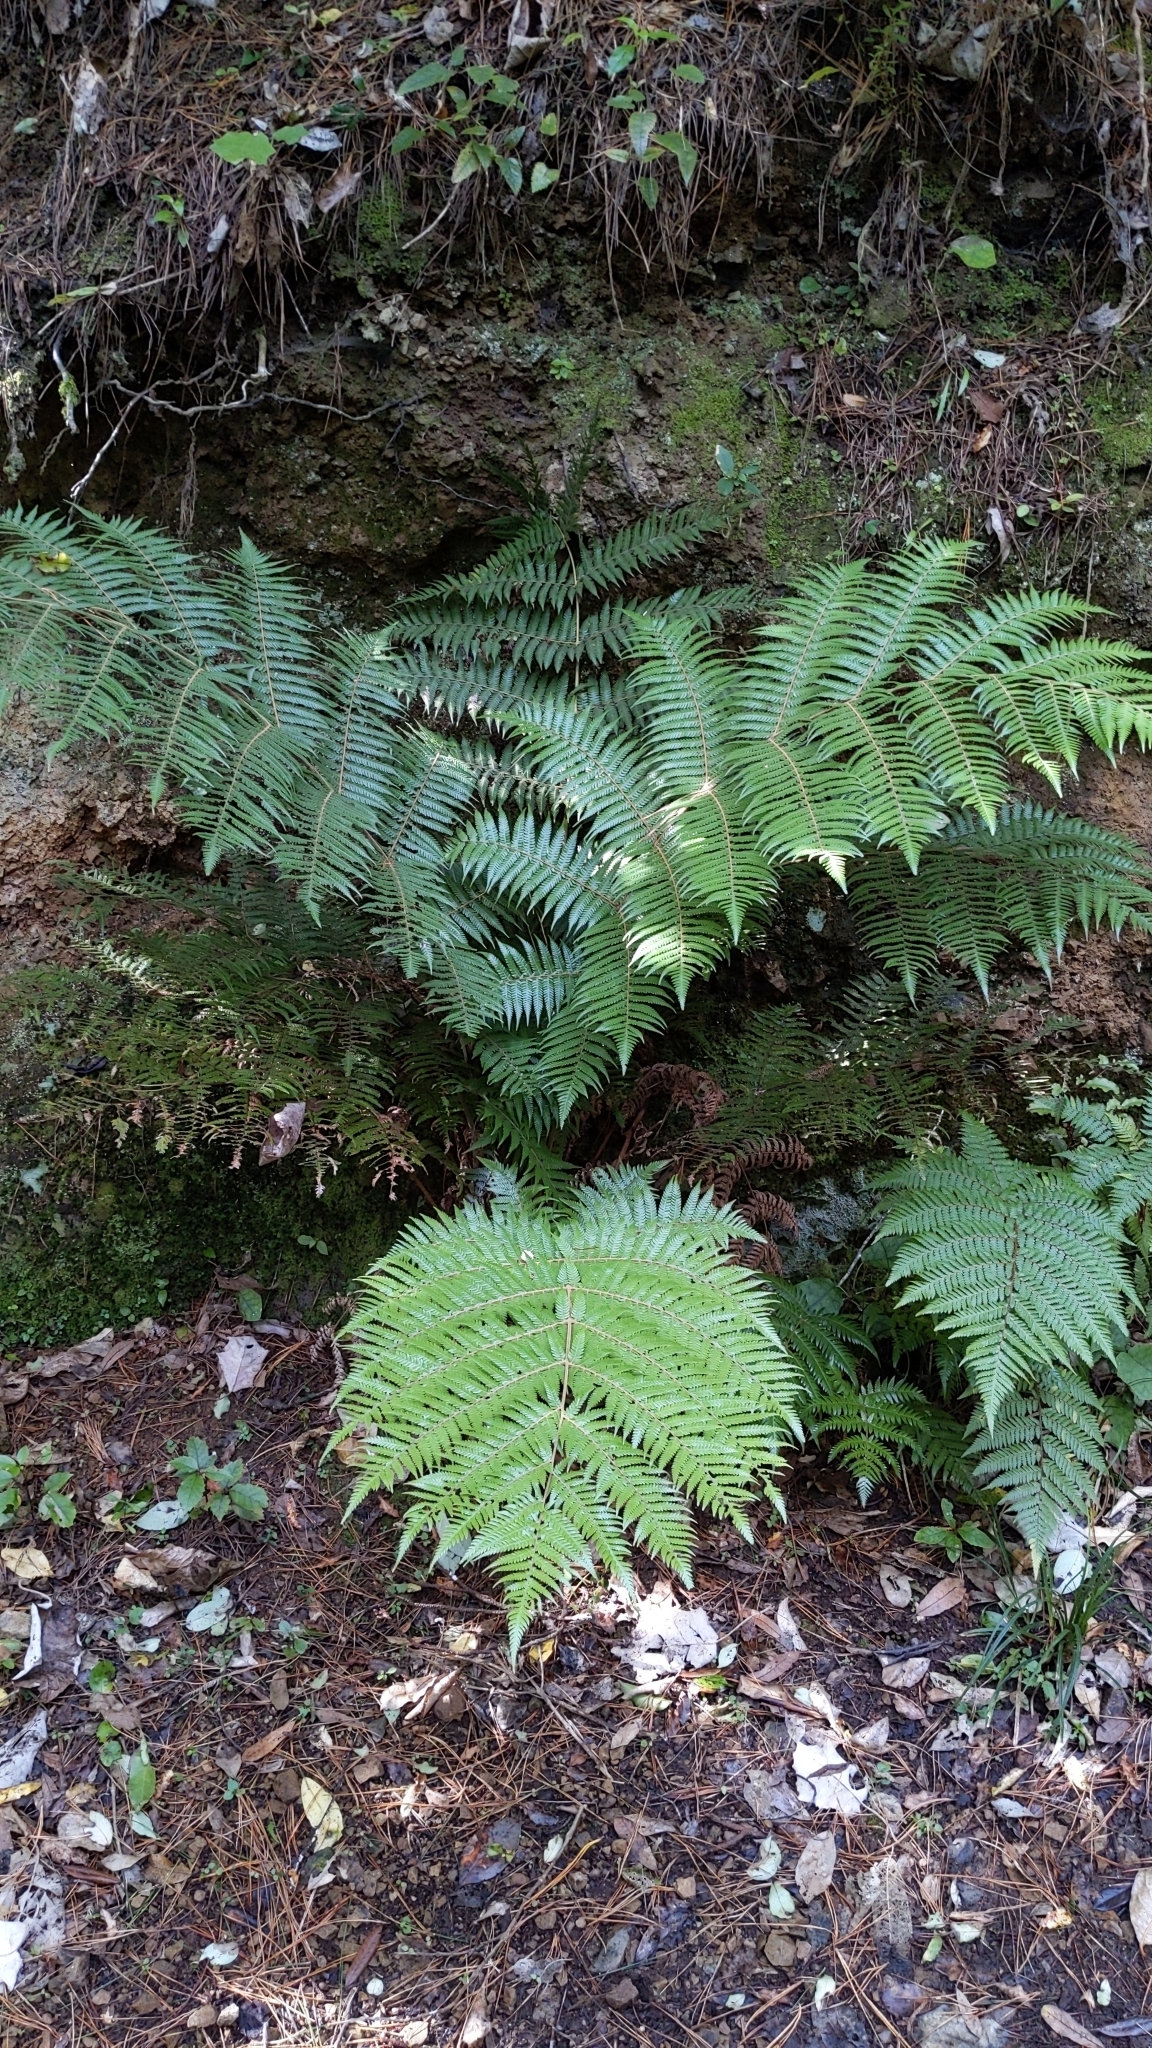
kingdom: Plantae
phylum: Tracheophyta
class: Polypodiopsida
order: Cyatheales
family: Cyatheaceae
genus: Alsophila
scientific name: Alsophila dealbata
